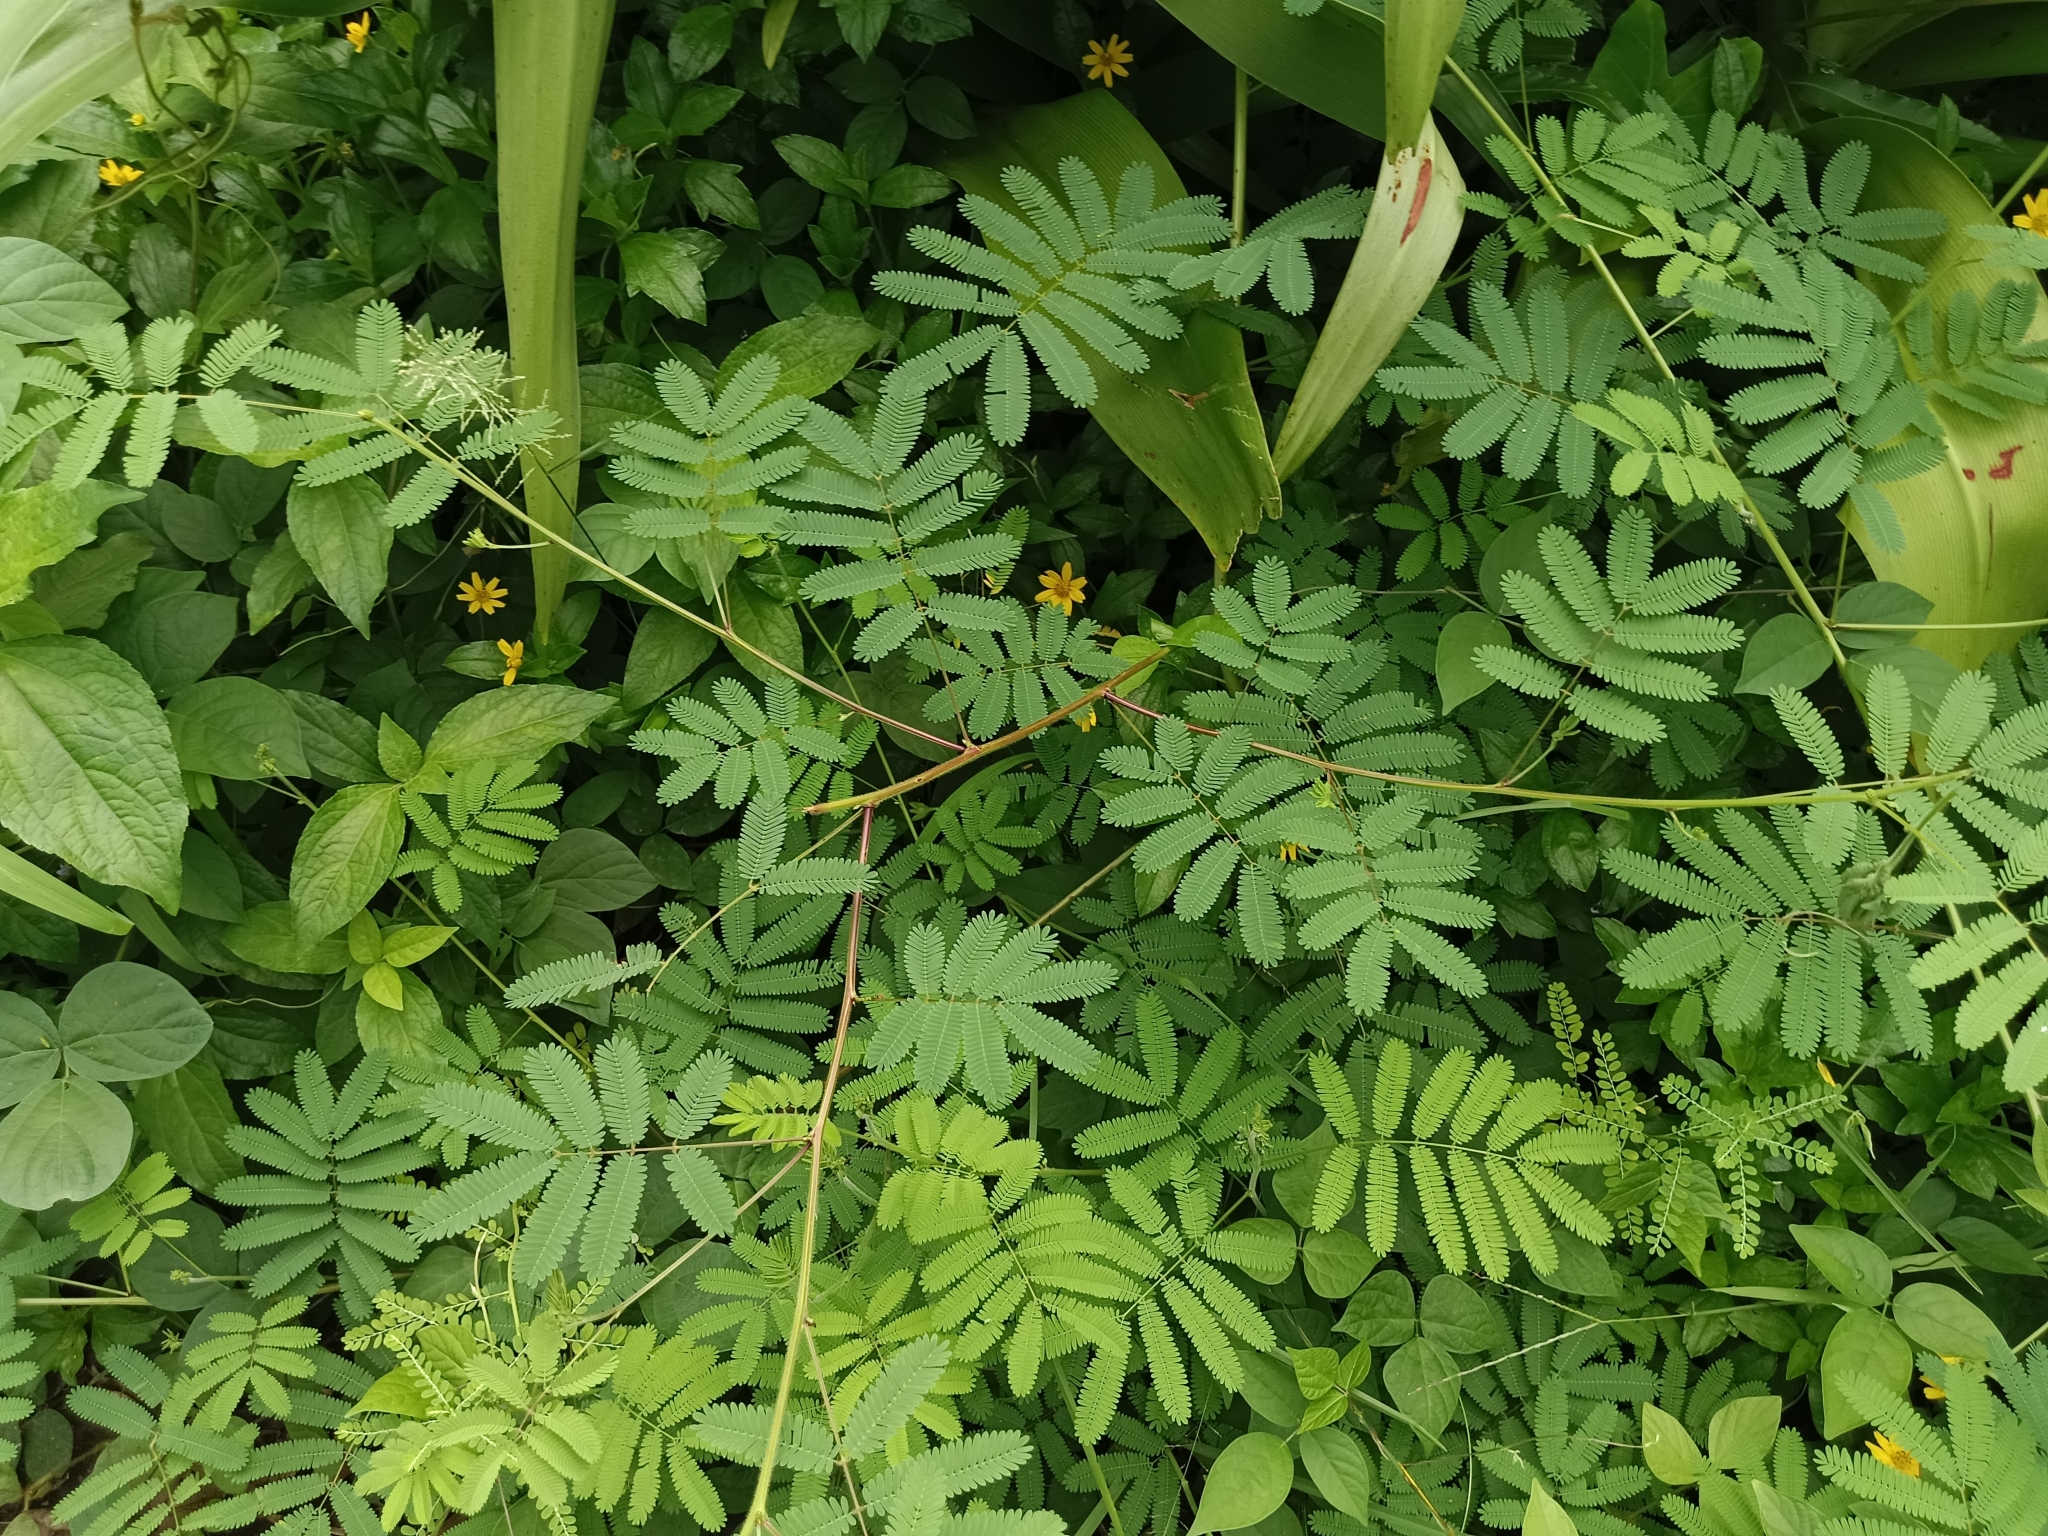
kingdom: Plantae
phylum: Tracheophyta
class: Magnoliopsida
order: Fabales
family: Fabaceae
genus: Mimosa
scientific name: Mimosa diplotricha
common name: Giant sensitive-plant
